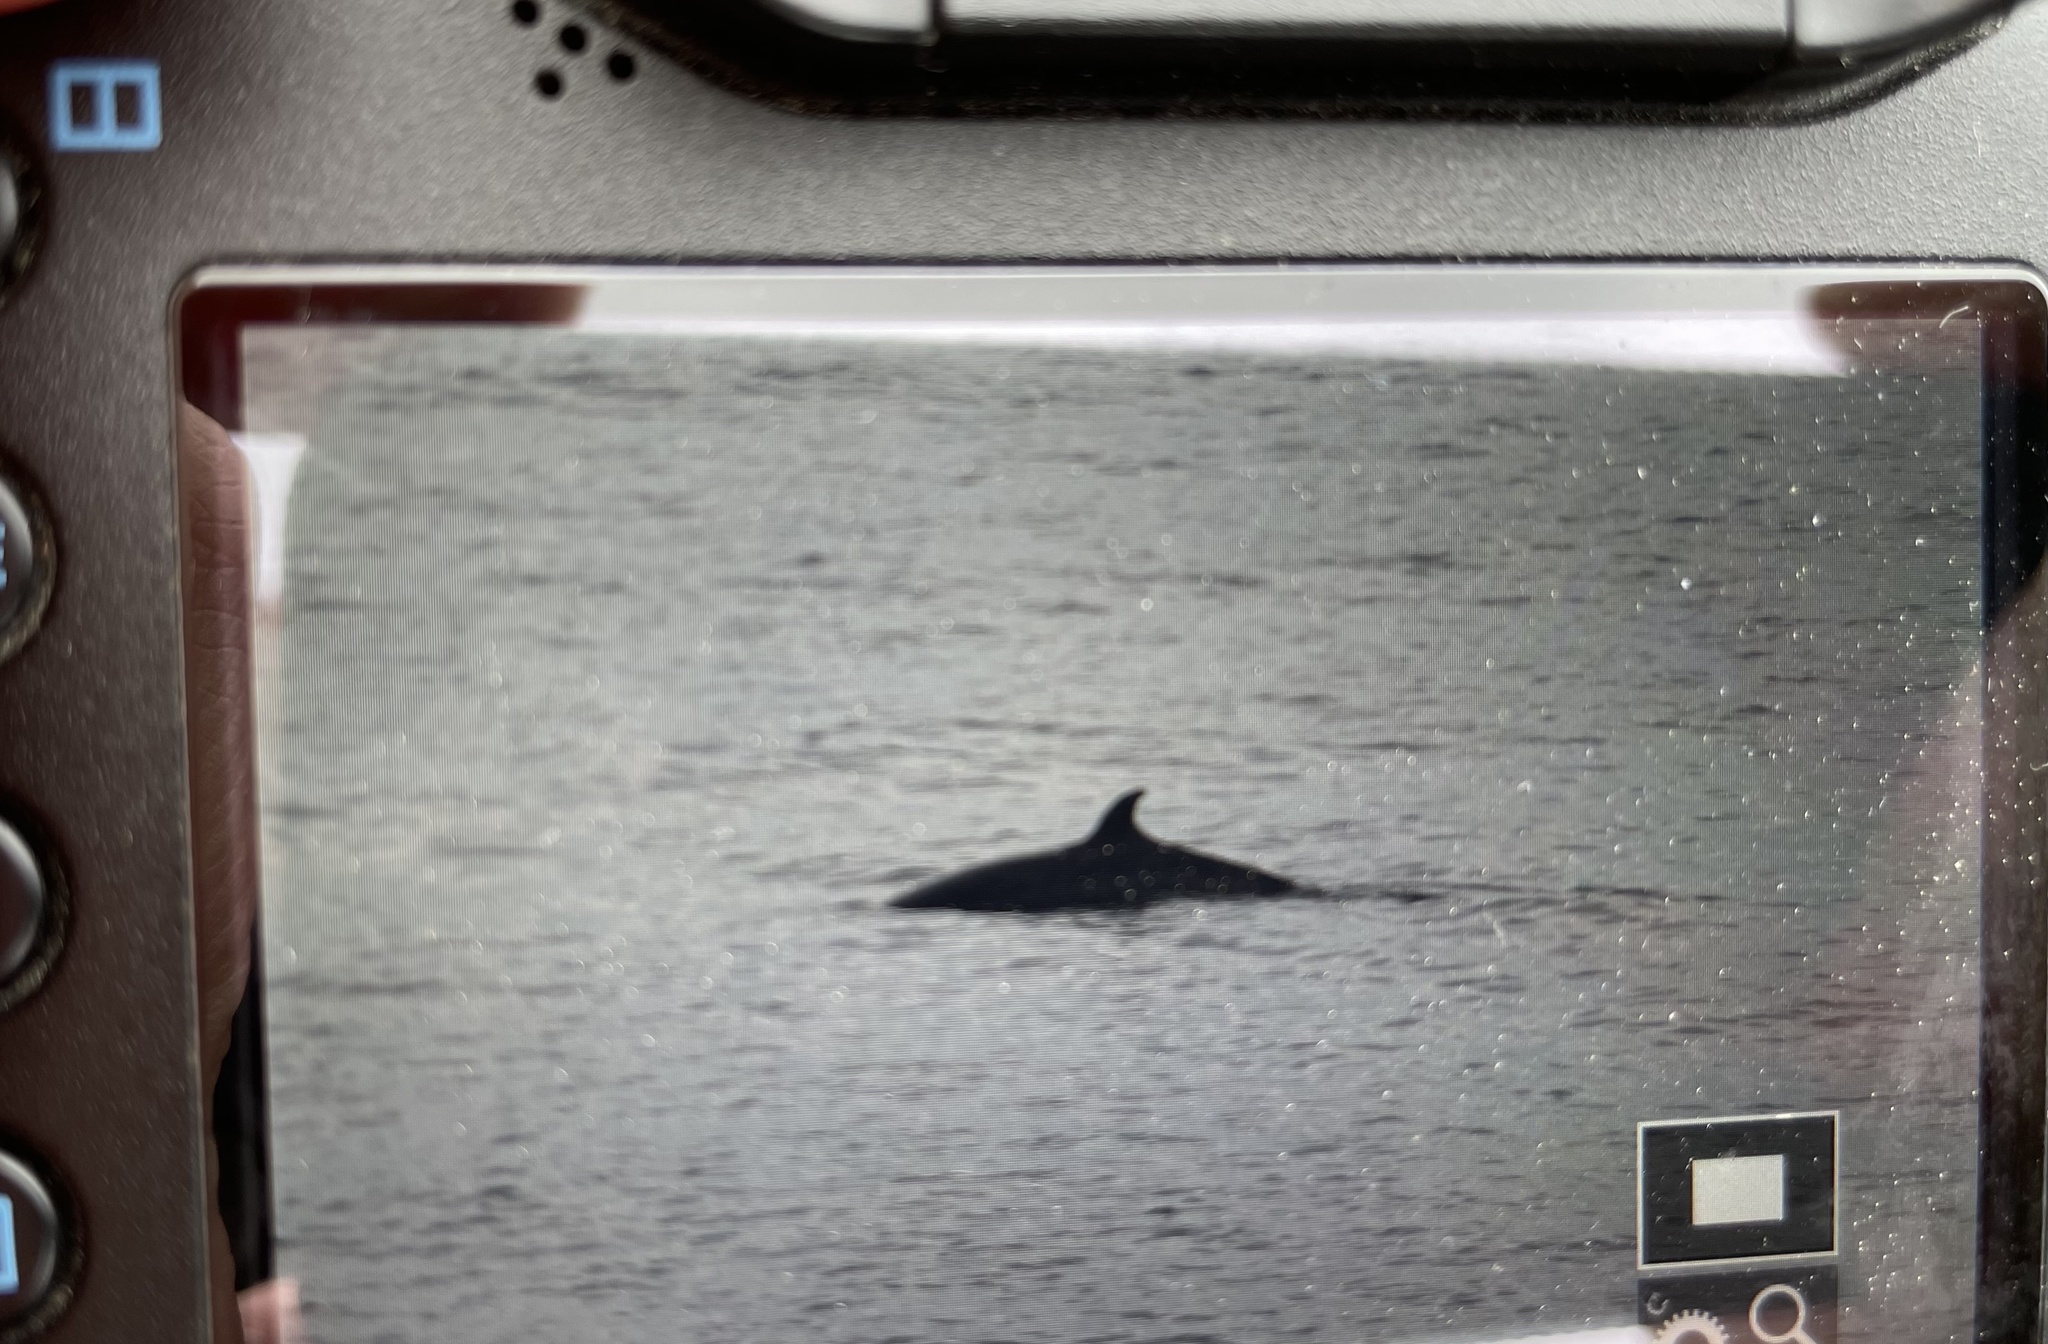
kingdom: Animalia
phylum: Chordata
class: Mammalia
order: Cetacea
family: Balaenopteridae
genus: Balaenoptera
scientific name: Balaenoptera acutorostrata
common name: Common minke whale
